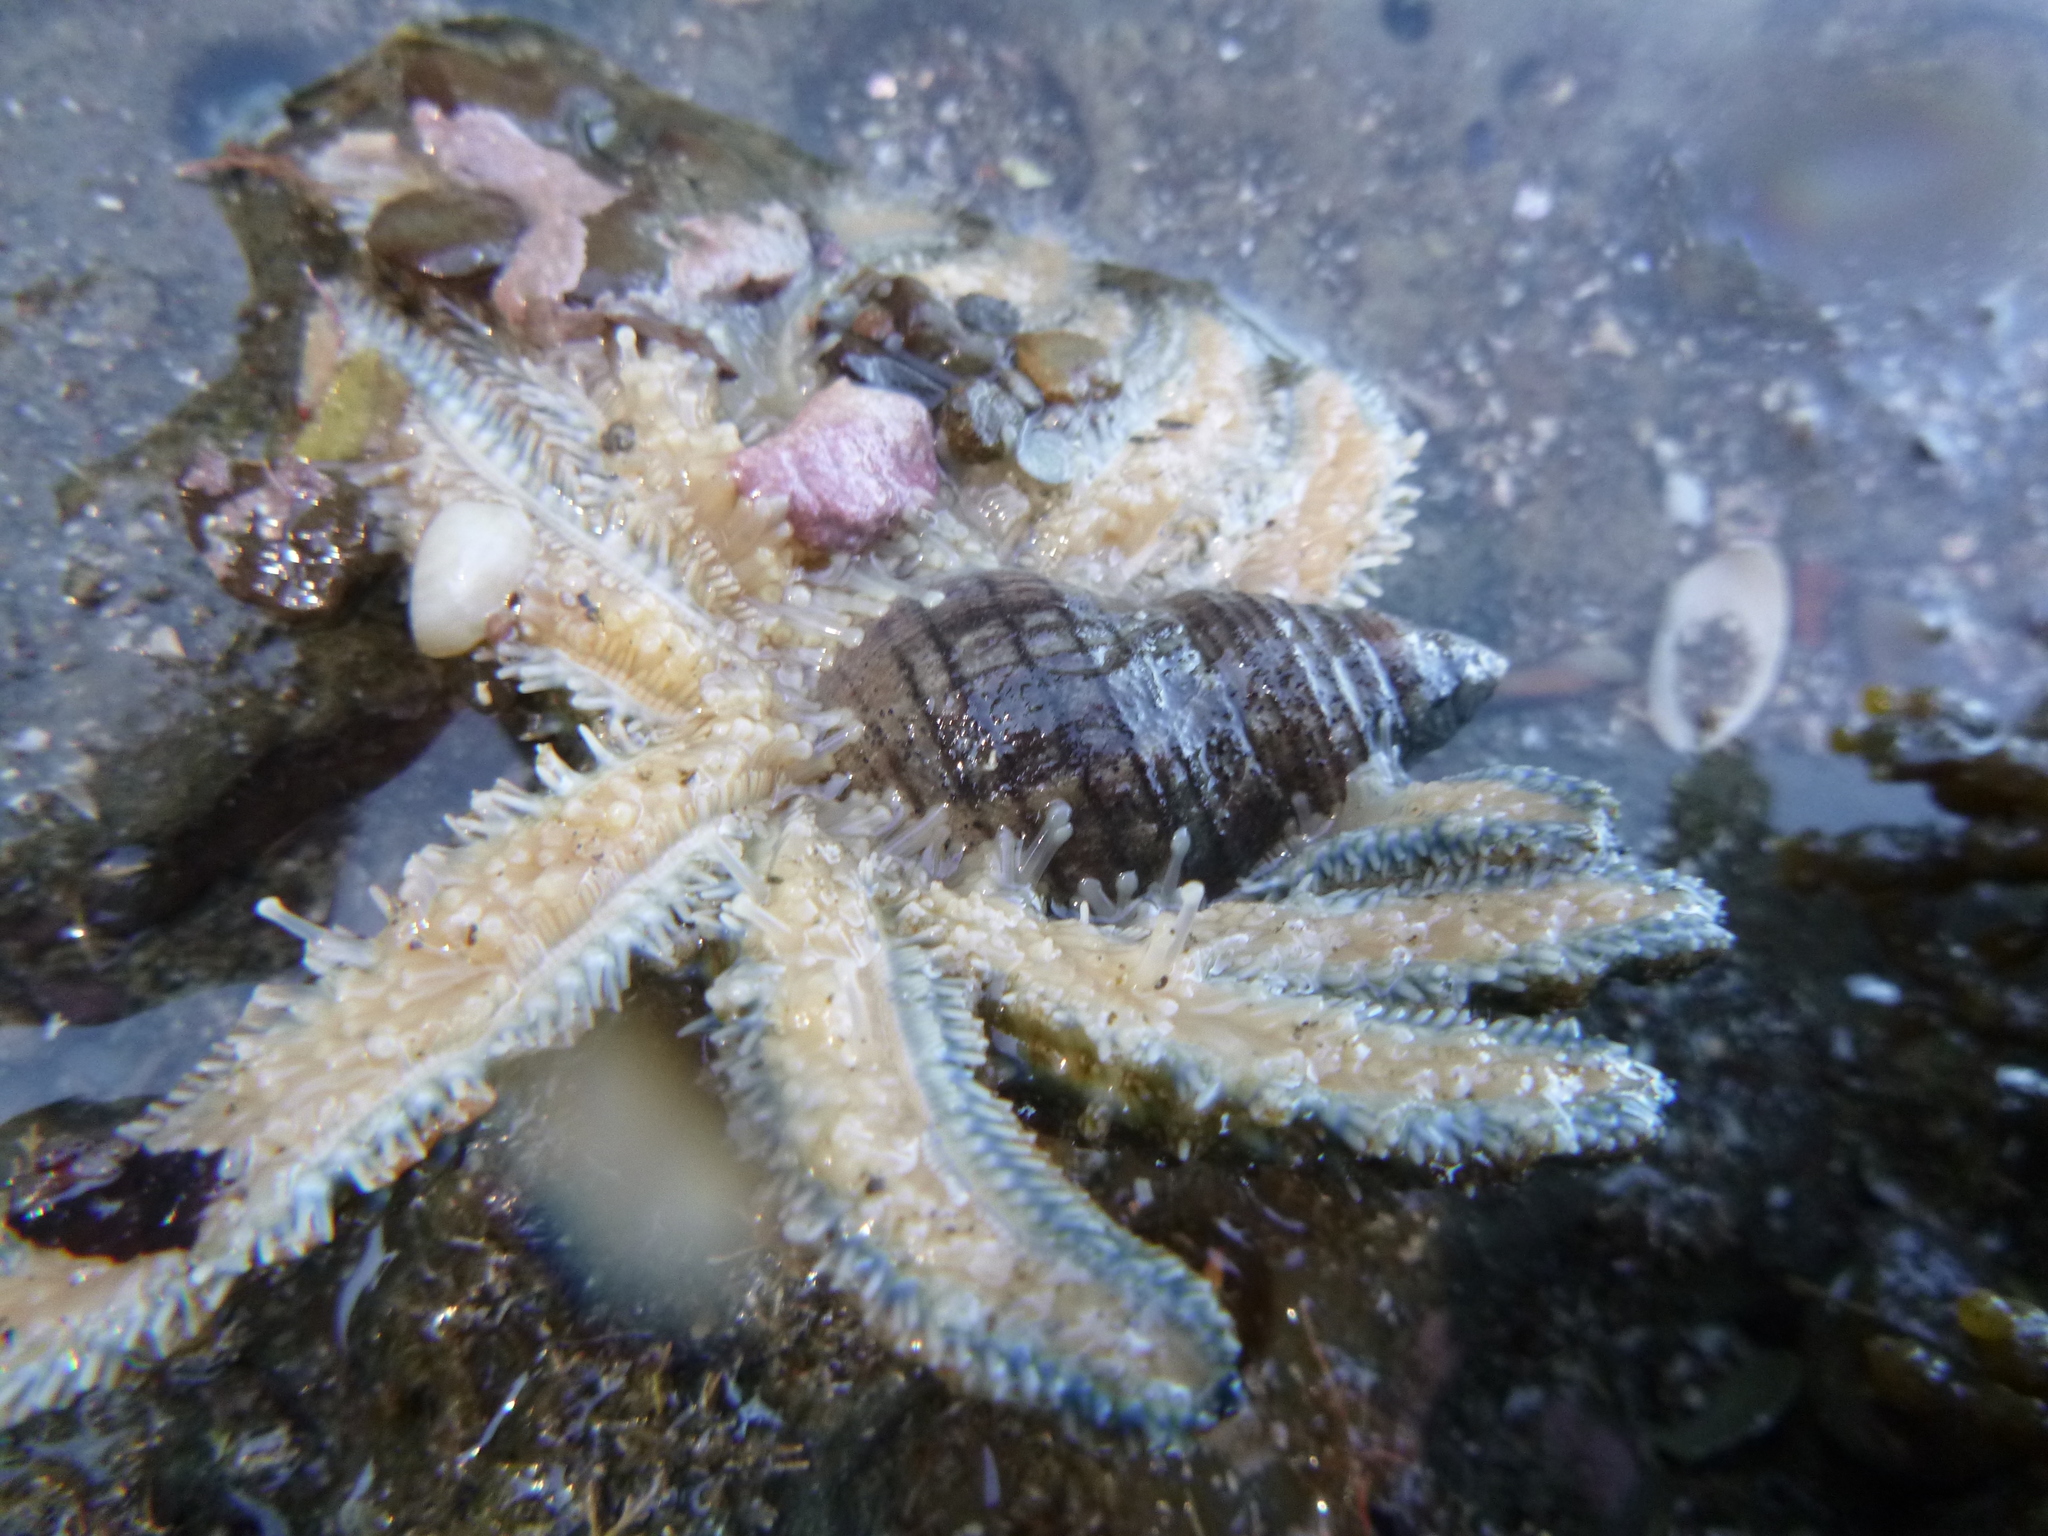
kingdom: Animalia
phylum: Echinodermata
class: Asteroidea
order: Forcipulatida
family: Asteriidae
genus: Coscinasterias
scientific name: Coscinasterias muricata
